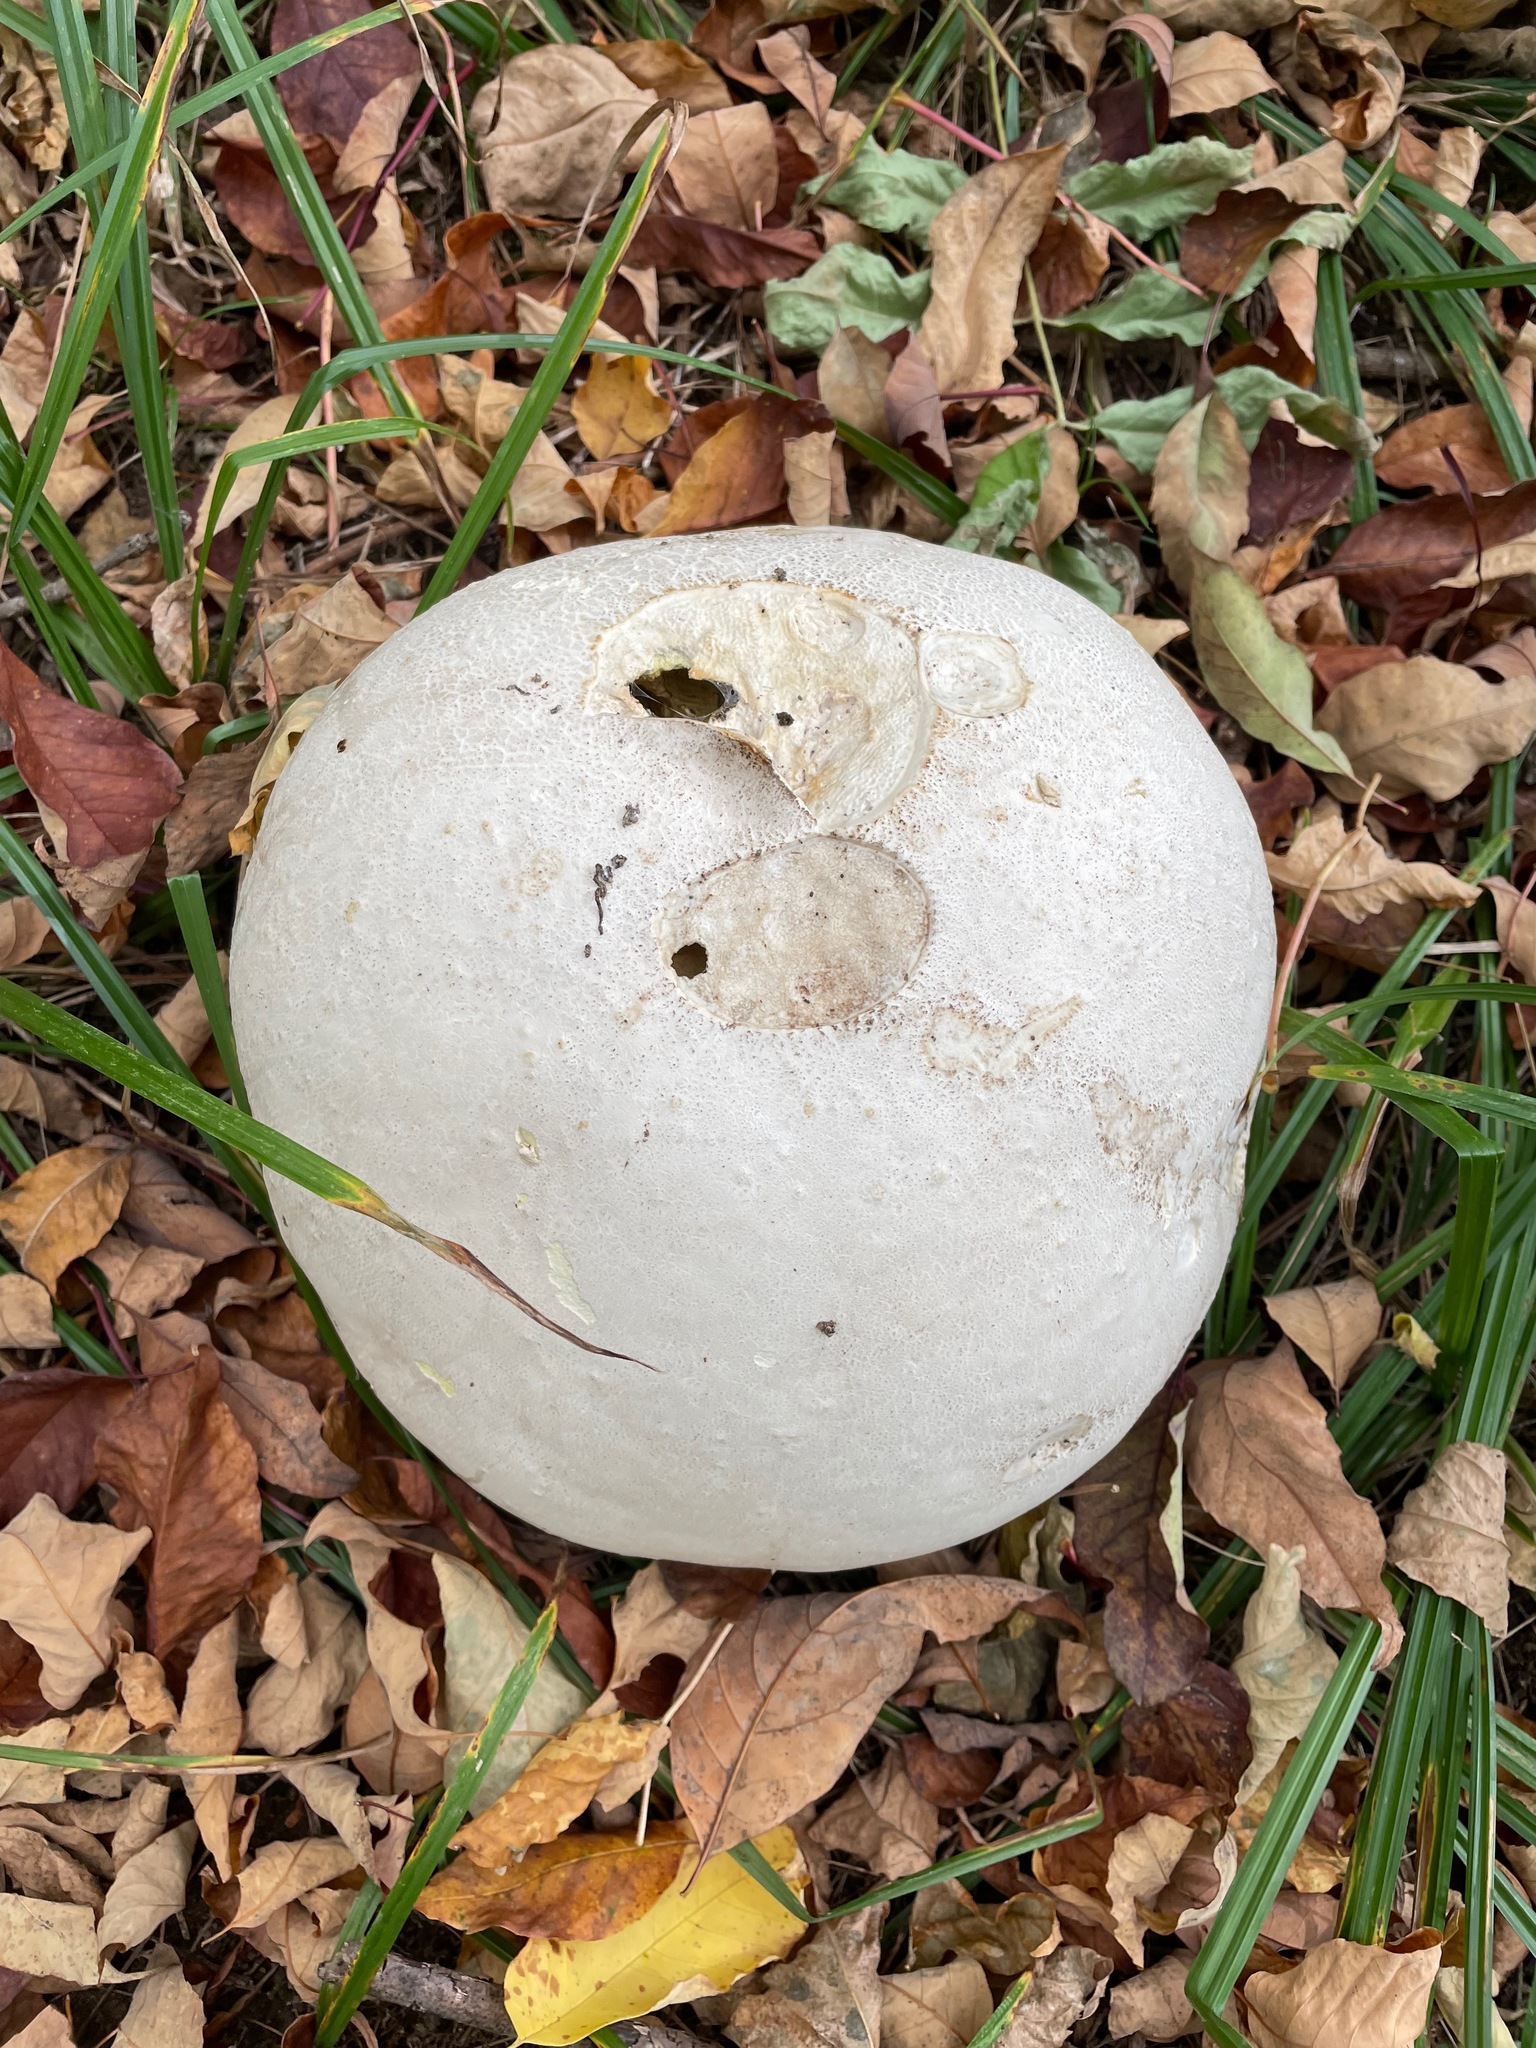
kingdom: Fungi
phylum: Basidiomycota
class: Agaricomycetes
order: Agaricales
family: Lycoperdaceae
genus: Calvatia
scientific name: Calvatia gigantea
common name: Giant puffball
